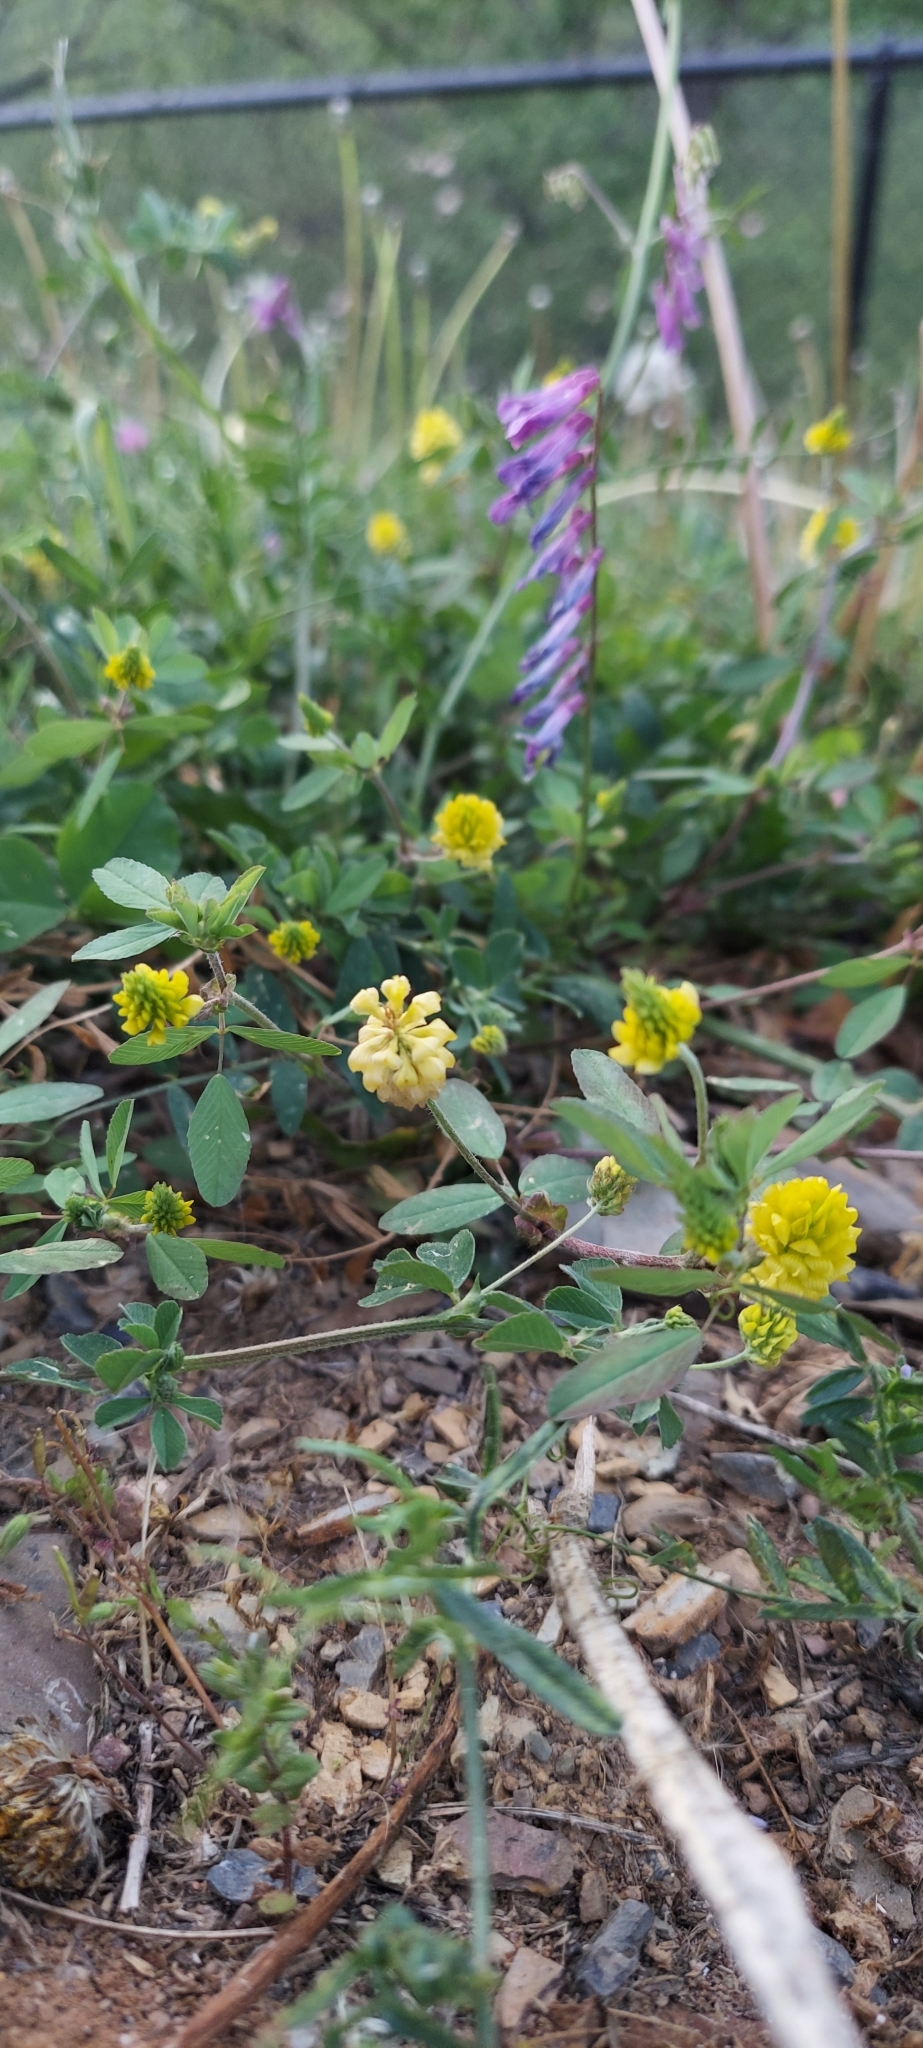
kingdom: Plantae
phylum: Tracheophyta
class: Magnoliopsida
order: Fabales
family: Fabaceae
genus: Trifolium
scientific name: Trifolium campestre
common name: Field clover
